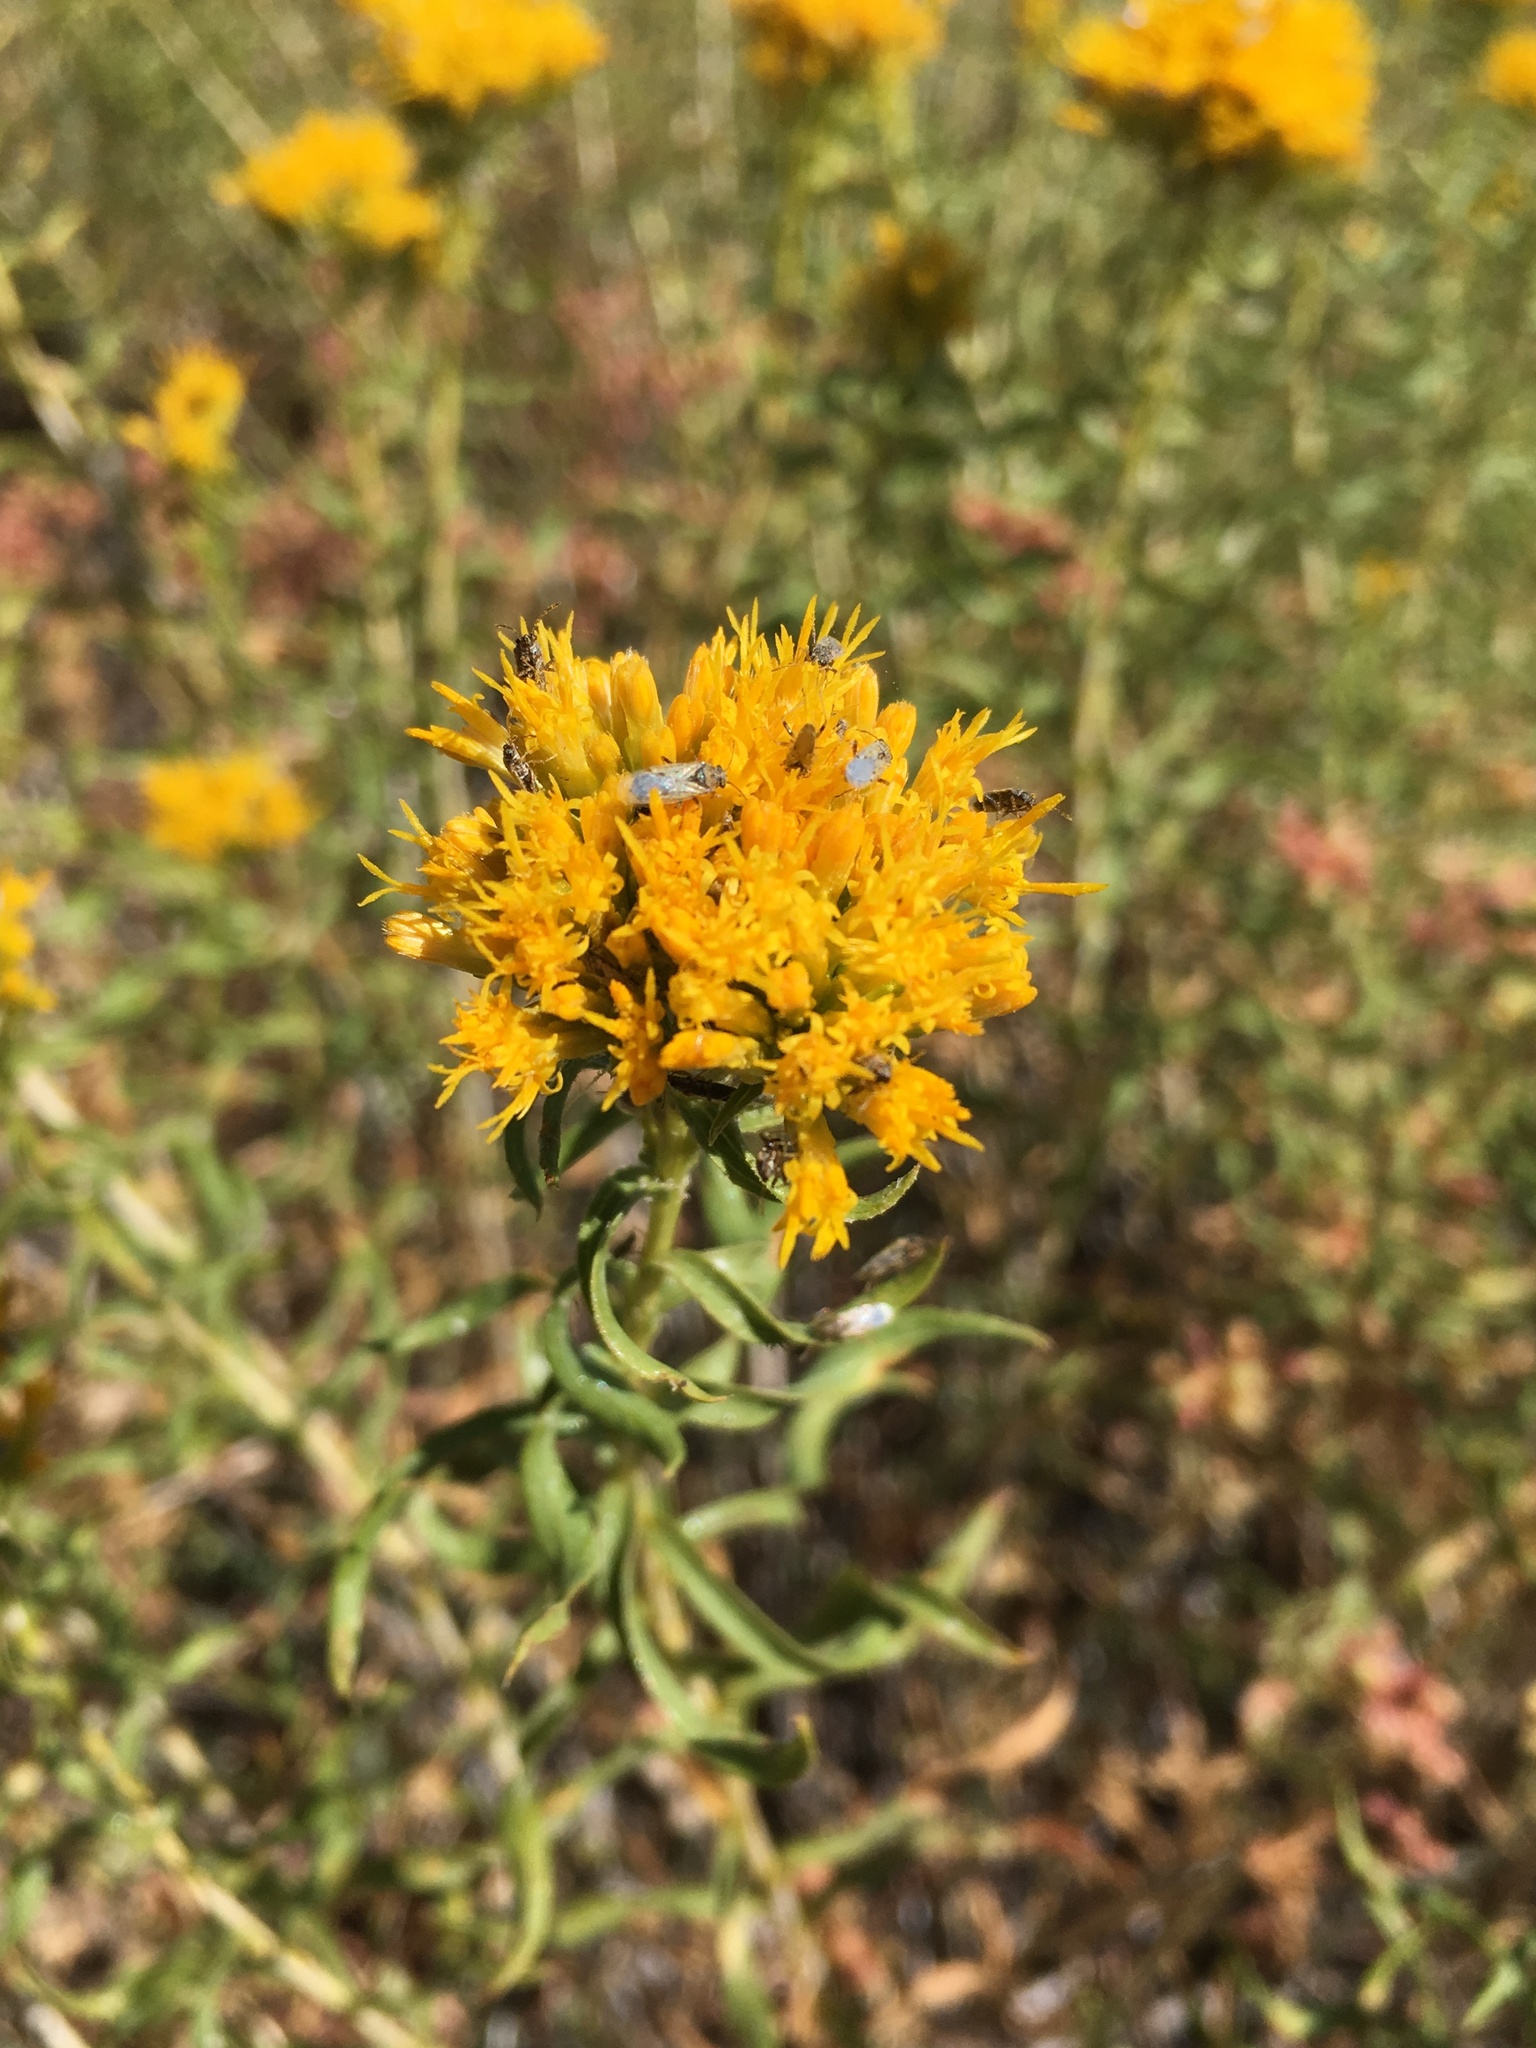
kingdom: Plantae
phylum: Tracheophyta
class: Magnoliopsida
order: Asterales
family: Asteraceae
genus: Chrysothamnus
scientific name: Chrysothamnus viscidiflorus
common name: Yellow rabbitbrush
